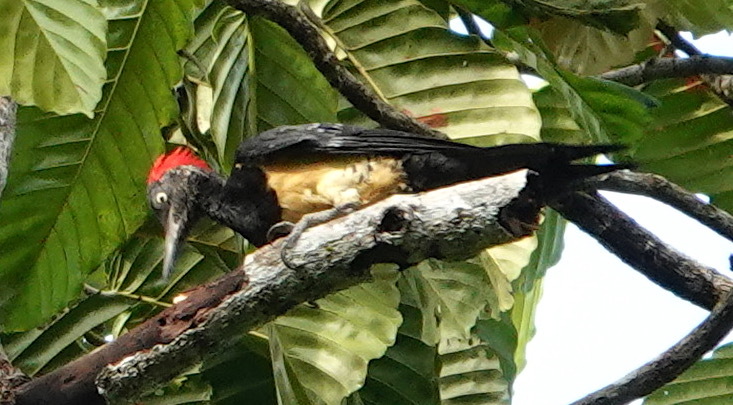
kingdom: Animalia
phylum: Chordata
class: Aves
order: Piciformes
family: Picidae
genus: Dryocopus
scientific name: Dryocopus javensis
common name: White-bellied woodpecker
